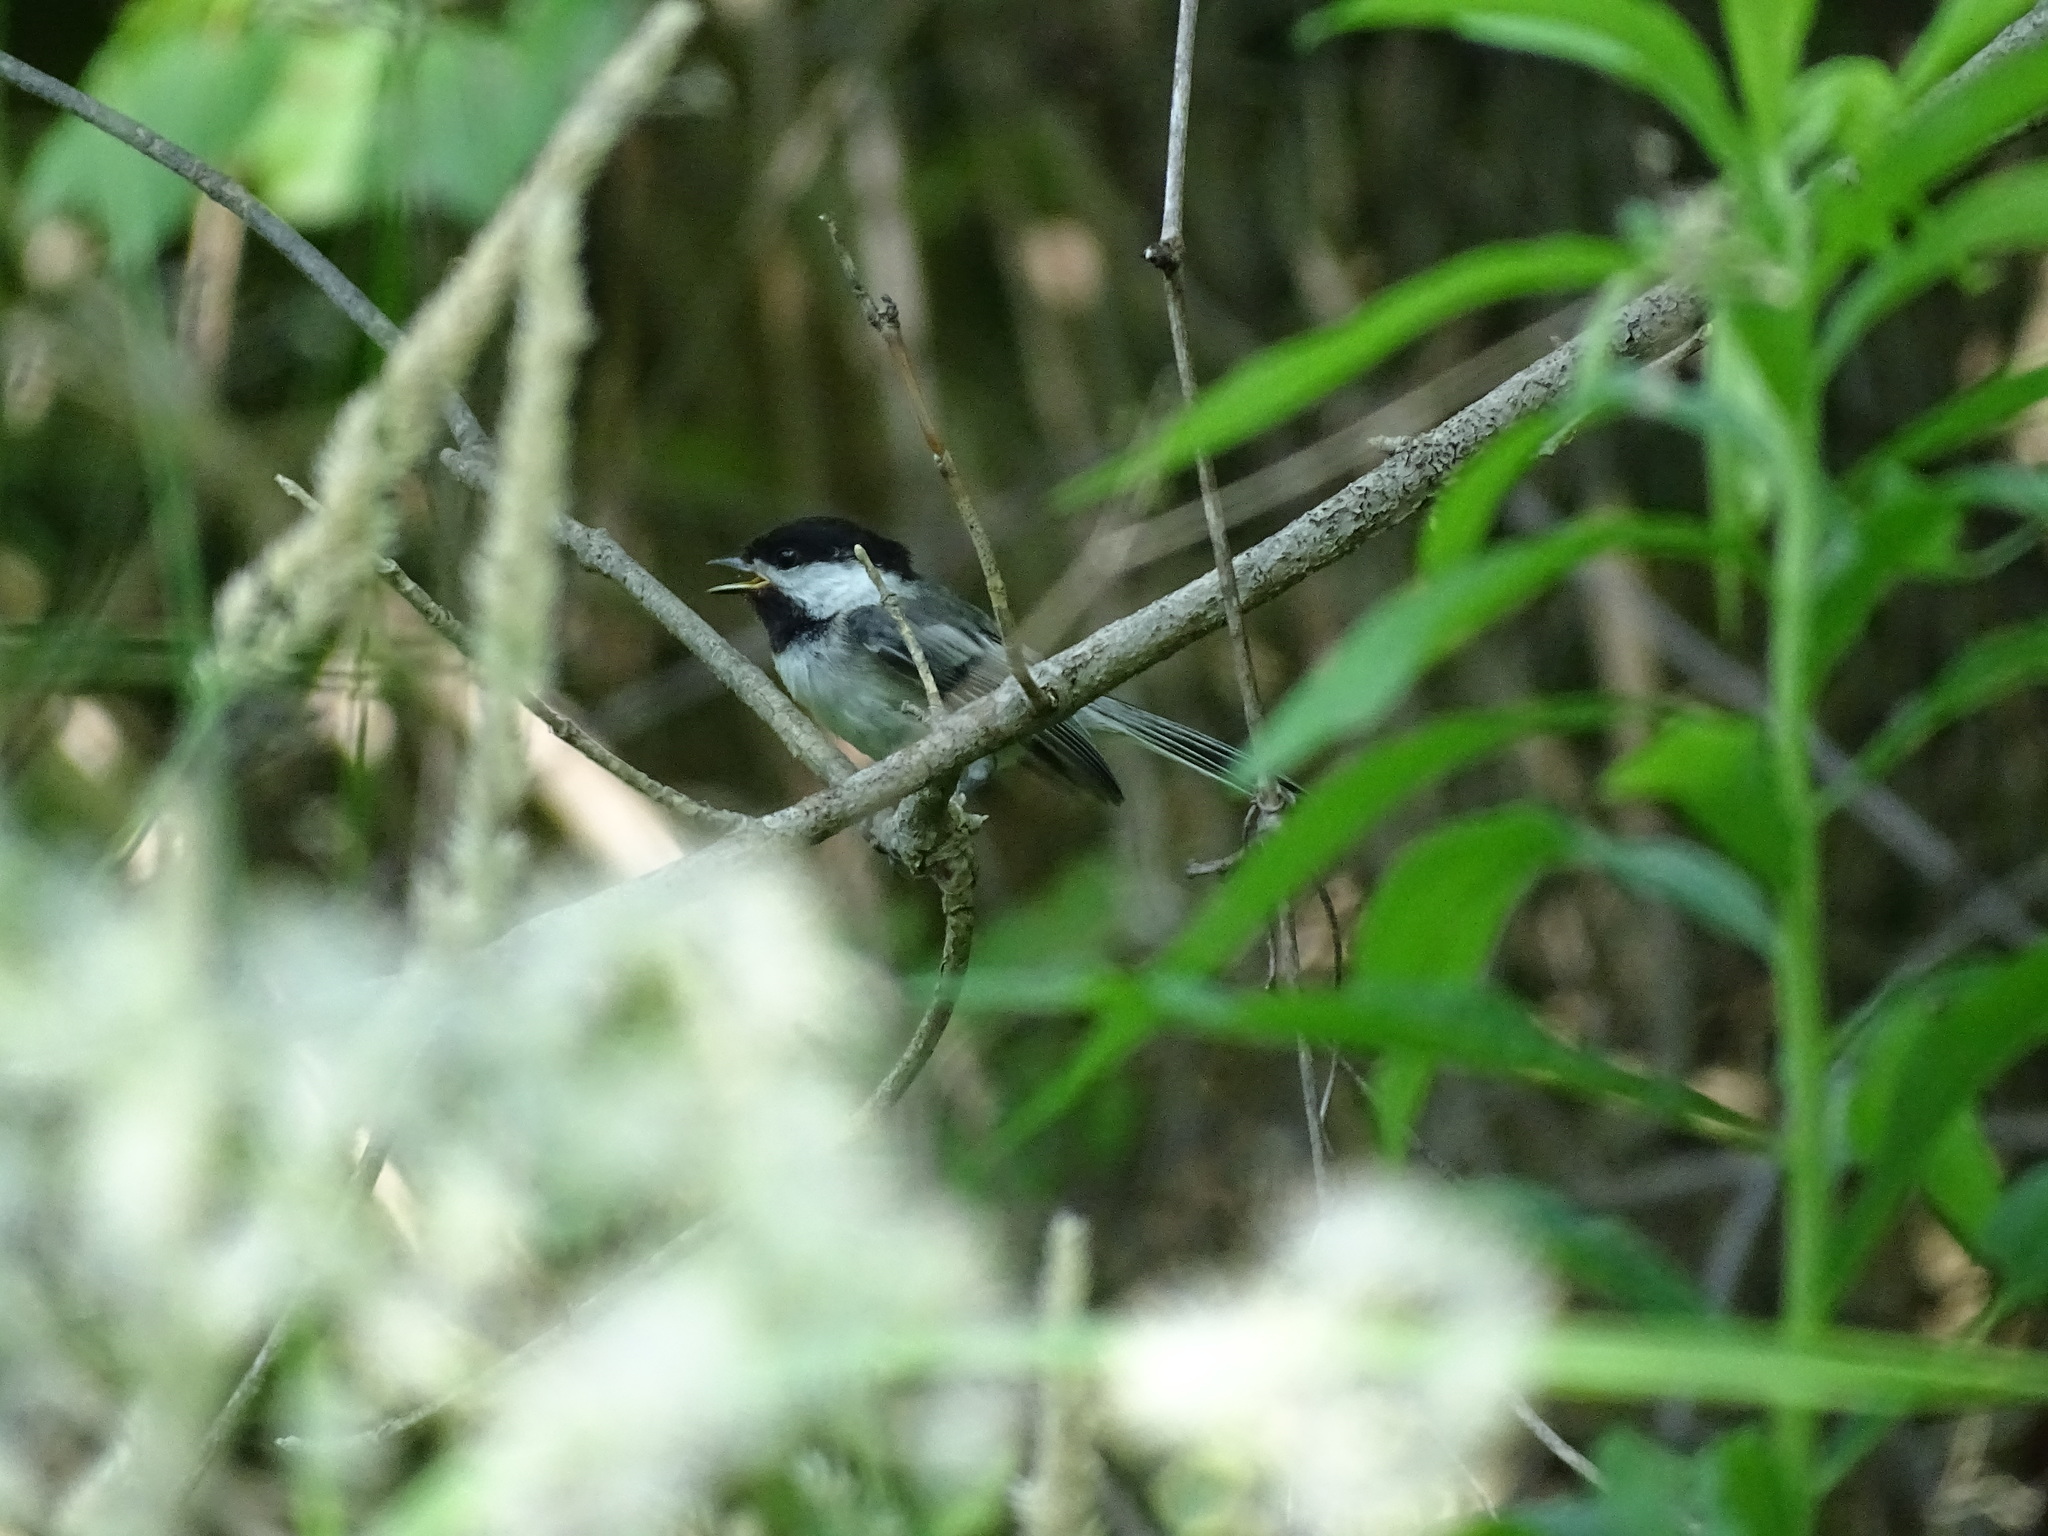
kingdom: Animalia
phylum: Chordata
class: Aves
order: Passeriformes
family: Paridae
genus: Poecile
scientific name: Poecile atricapillus
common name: Black-capped chickadee
